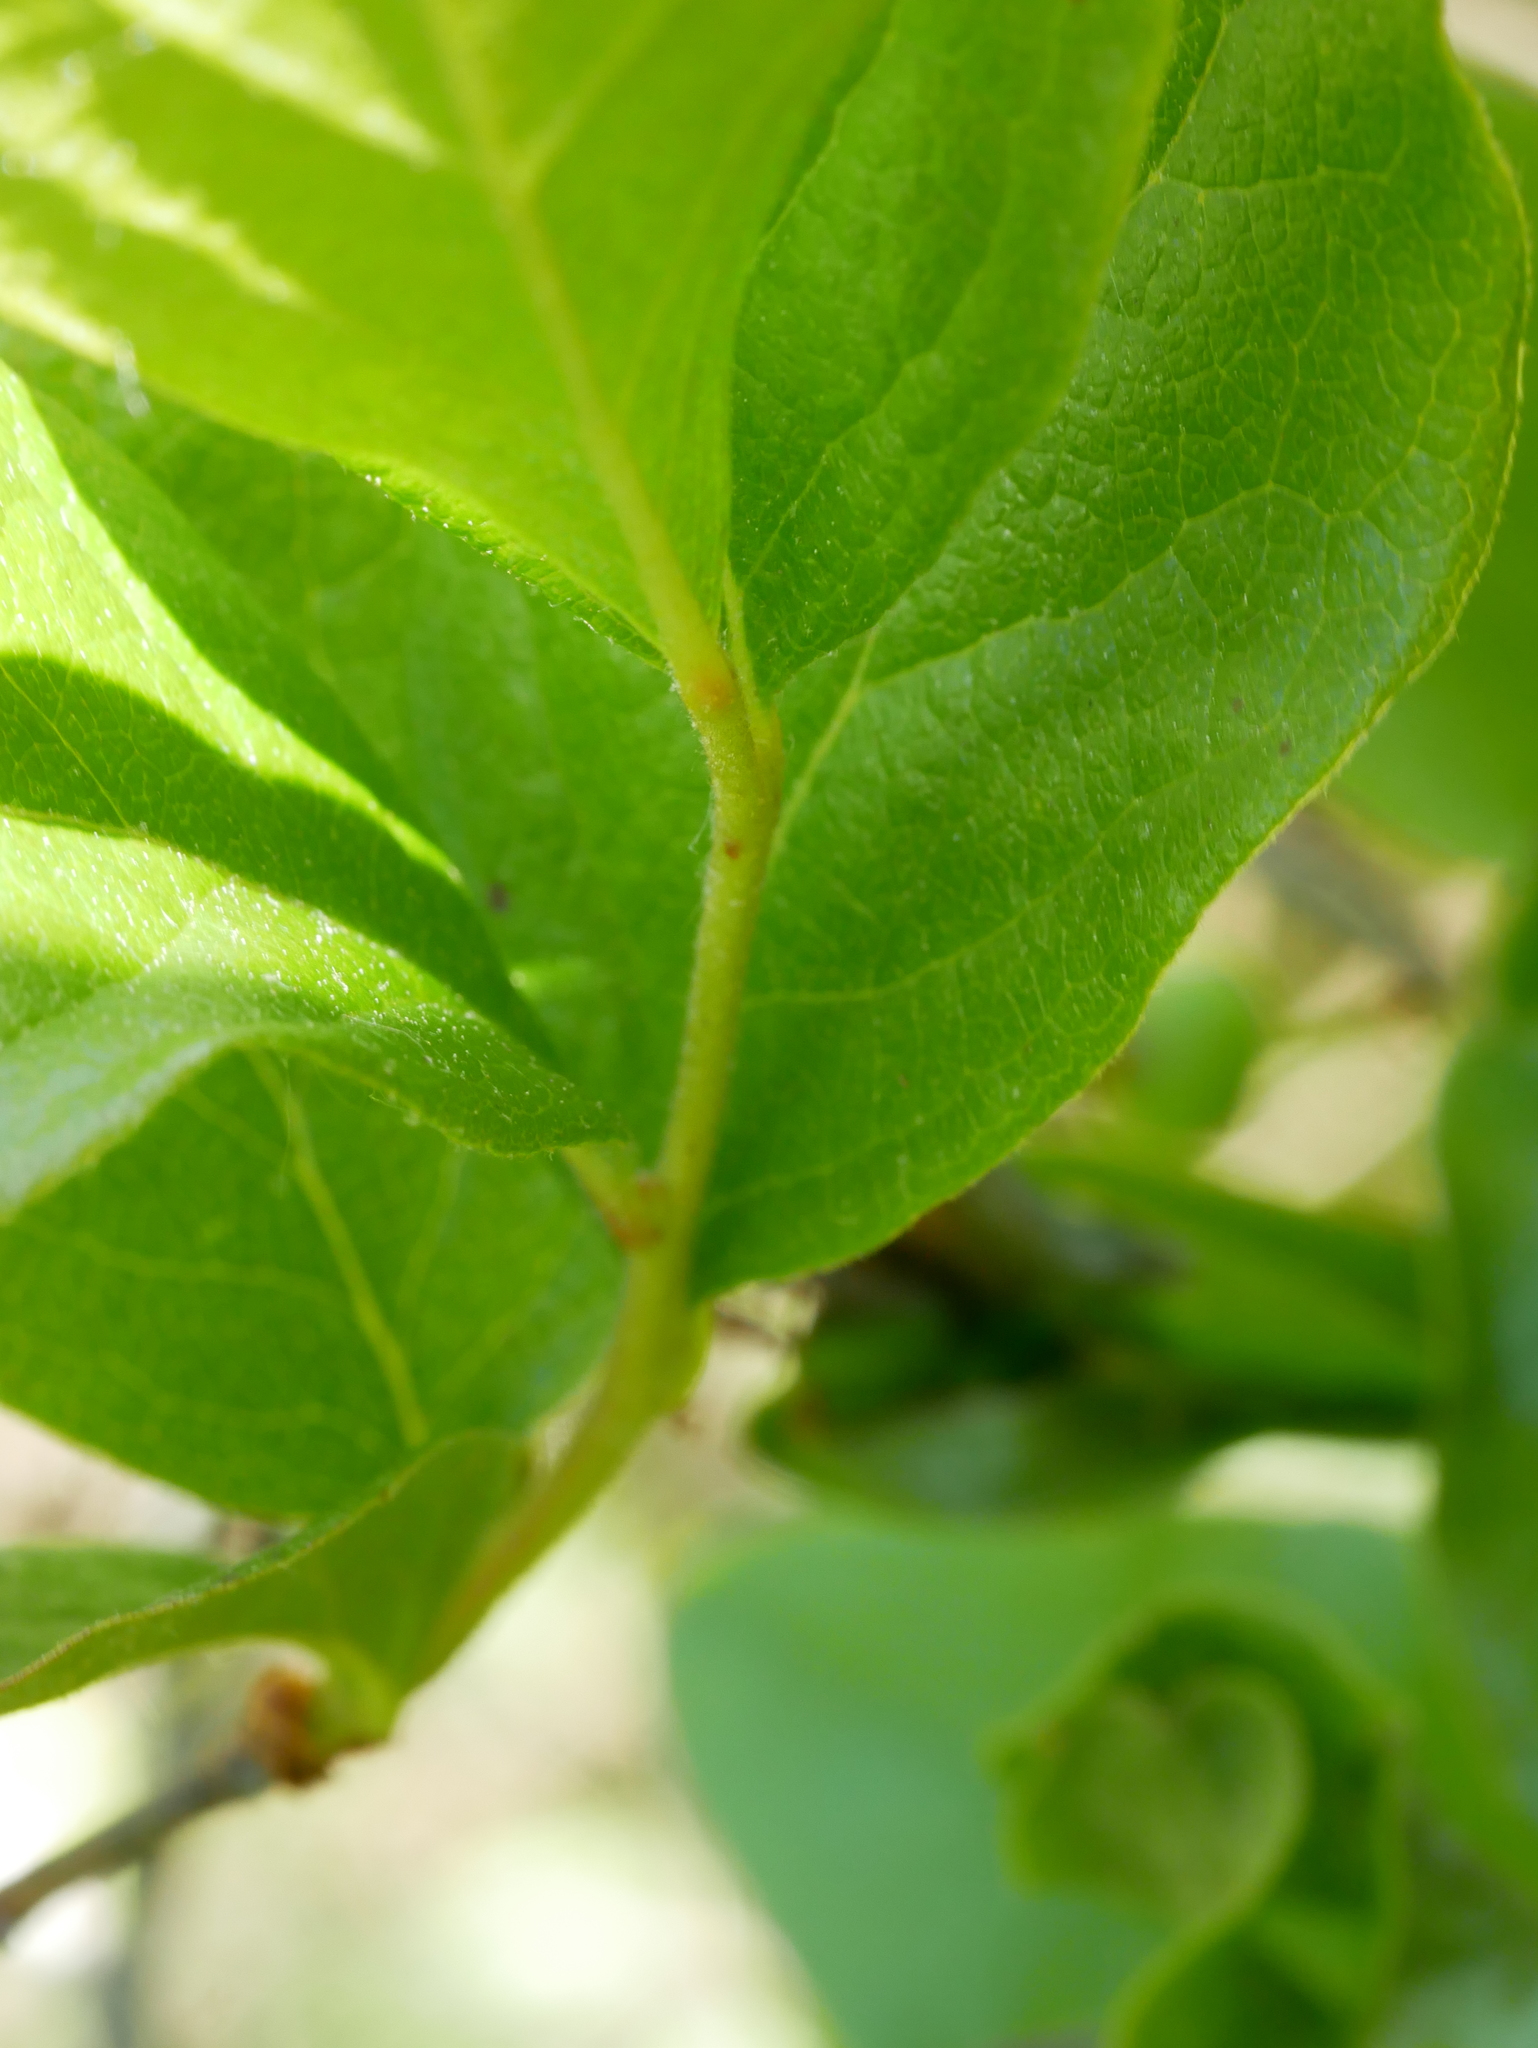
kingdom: Plantae
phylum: Tracheophyta
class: Magnoliopsida
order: Ericales
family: Ericaceae
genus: Gaylussacia
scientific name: Gaylussacia baccata
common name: Black huckleberry
